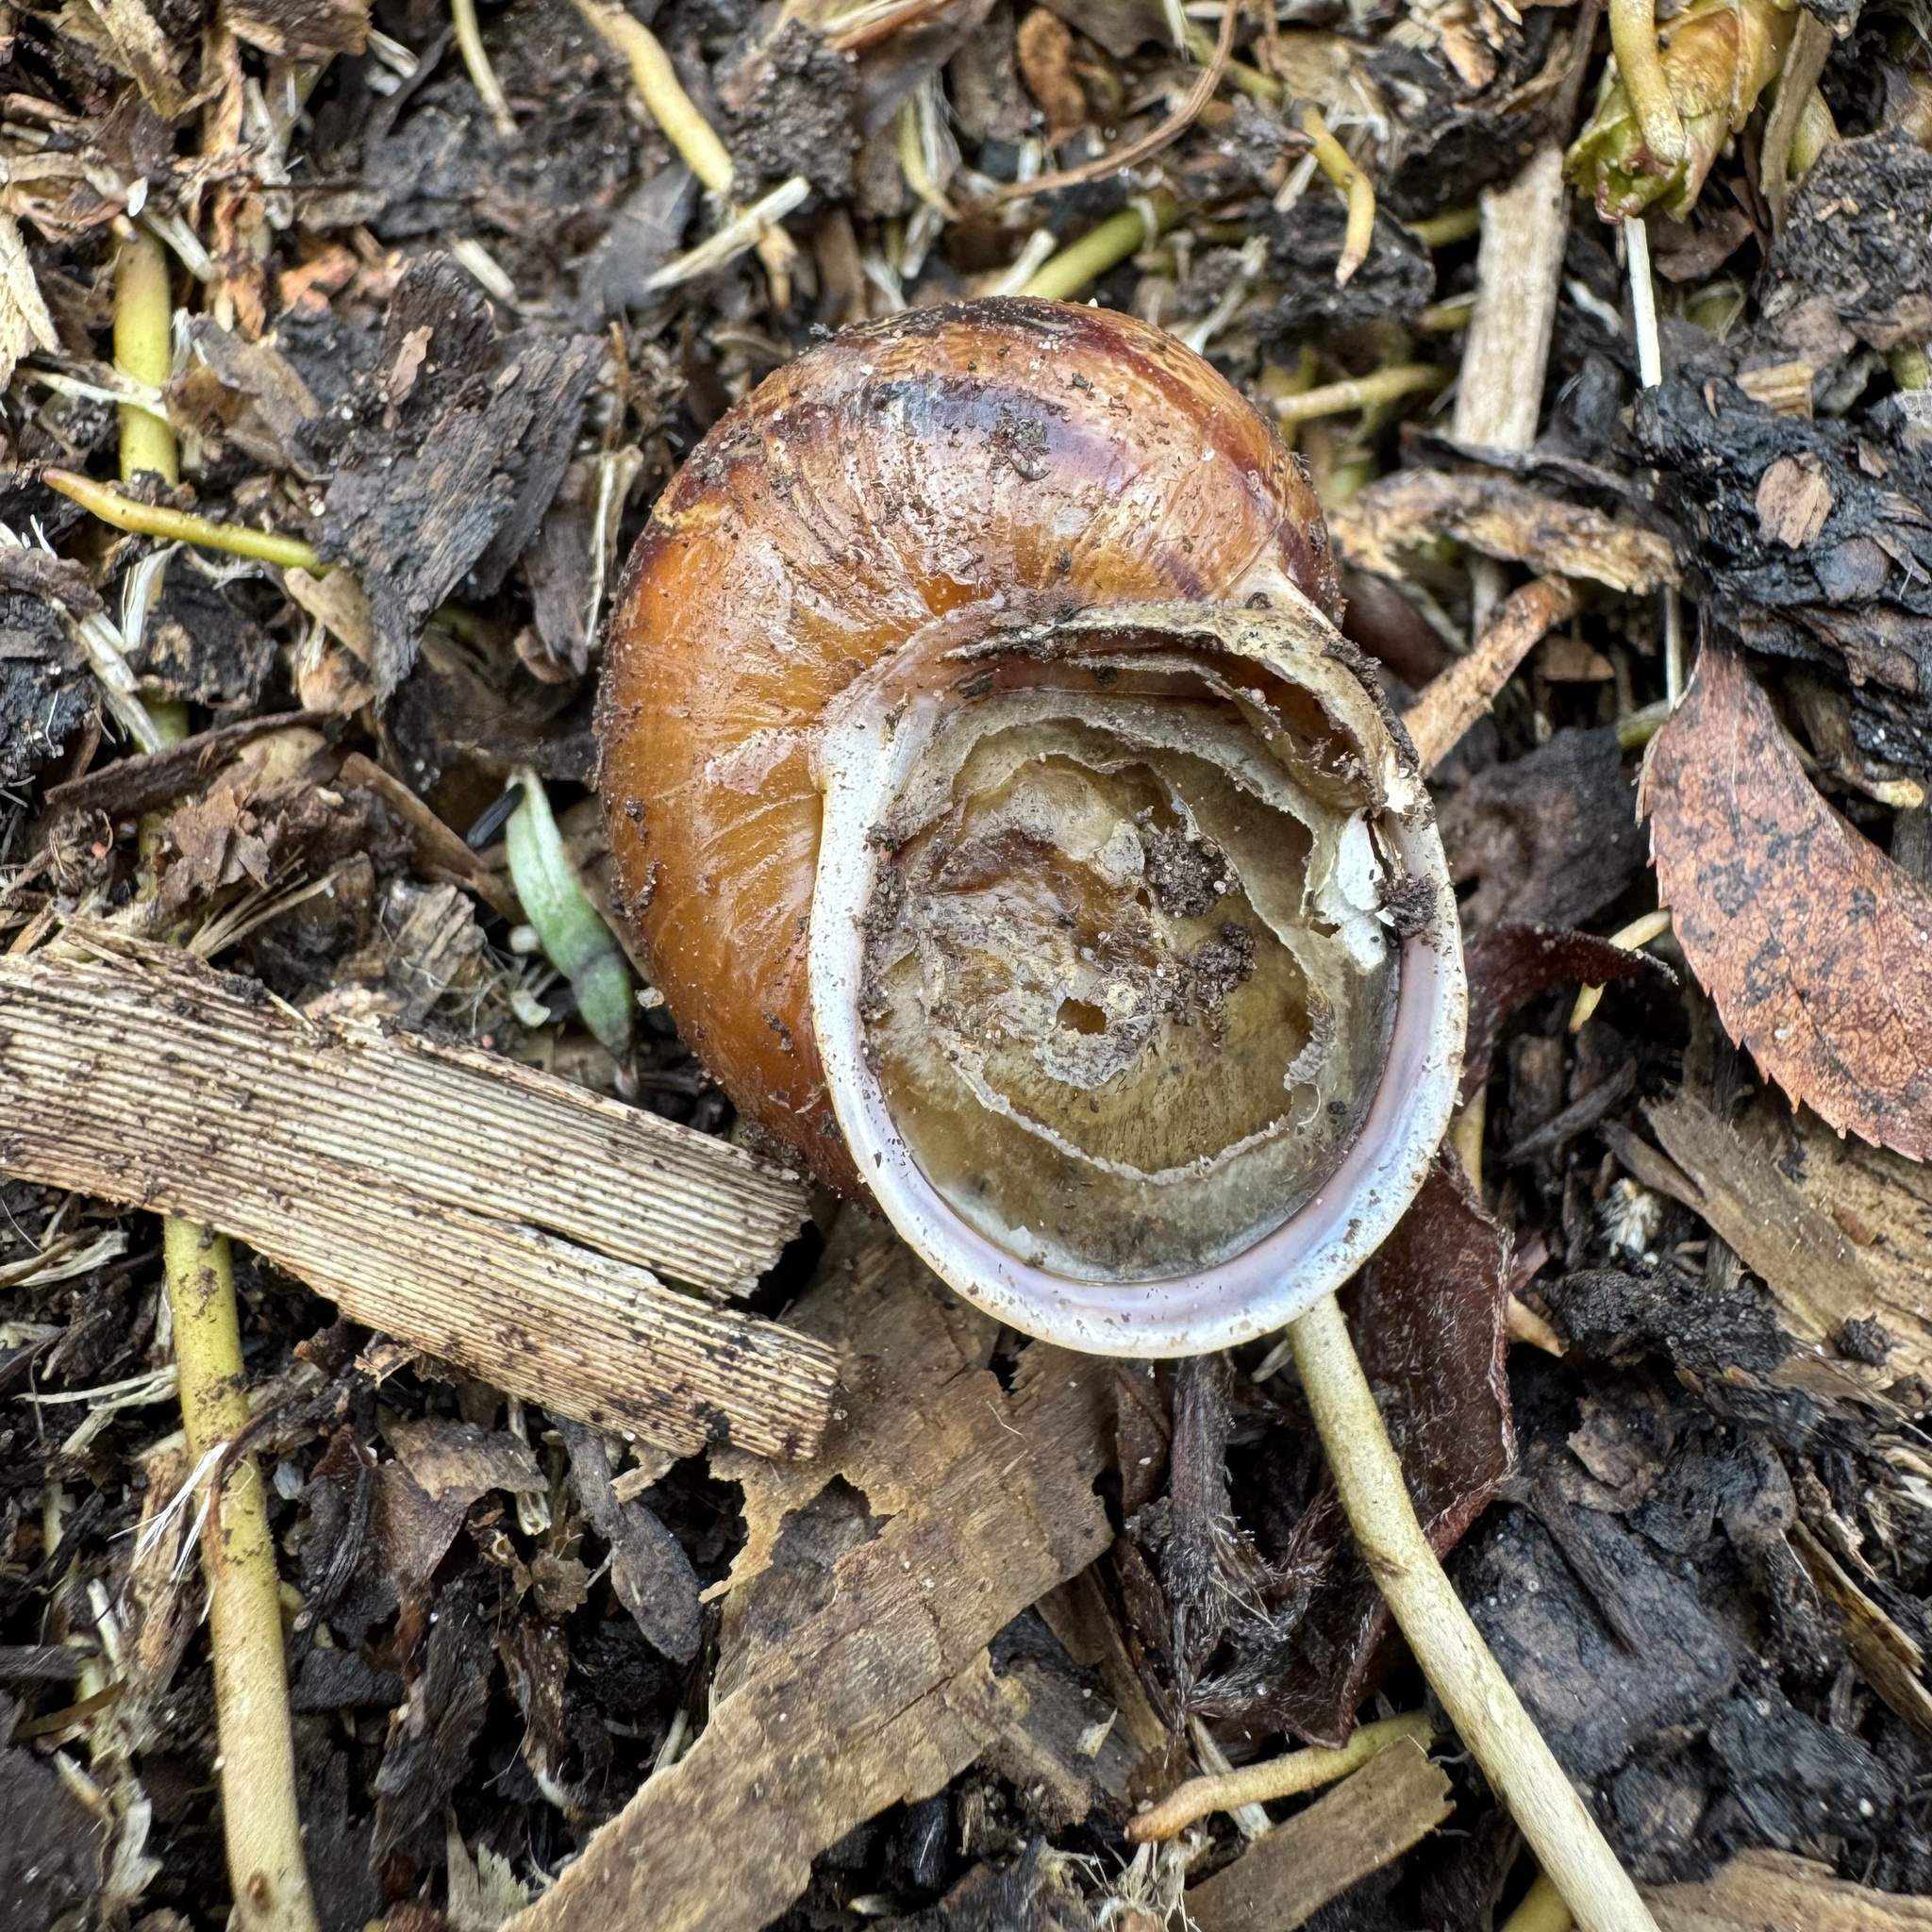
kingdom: Animalia
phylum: Mollusca
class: Gastropoda
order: Stylommatophora
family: Helicidae
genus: Cornu
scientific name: Cornu aspersum
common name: Brown garden snail
